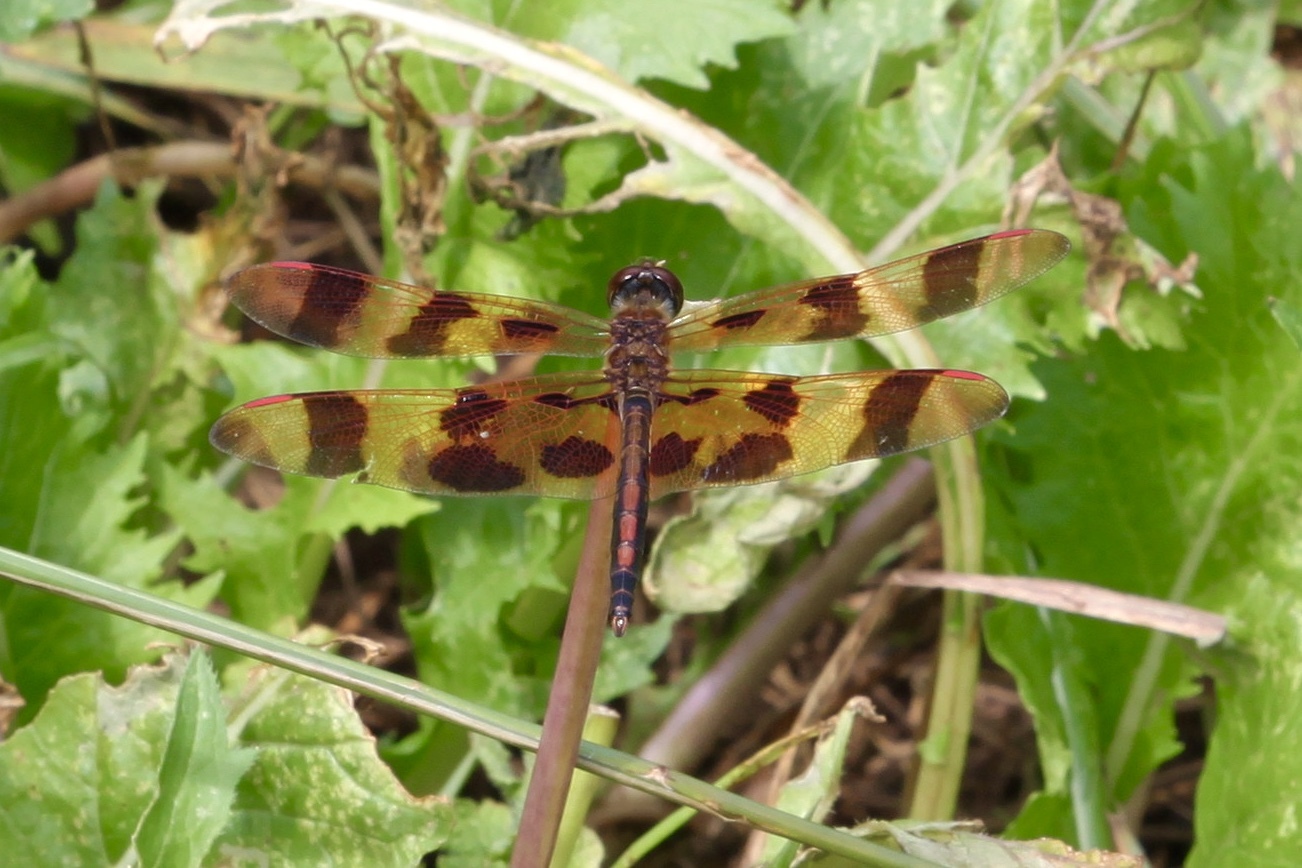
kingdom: Animalia
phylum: Arthropoda
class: Insecta
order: Odonata
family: Libellulidae
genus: Celithemis
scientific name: Celithemis eponina
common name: Halloween pennant
